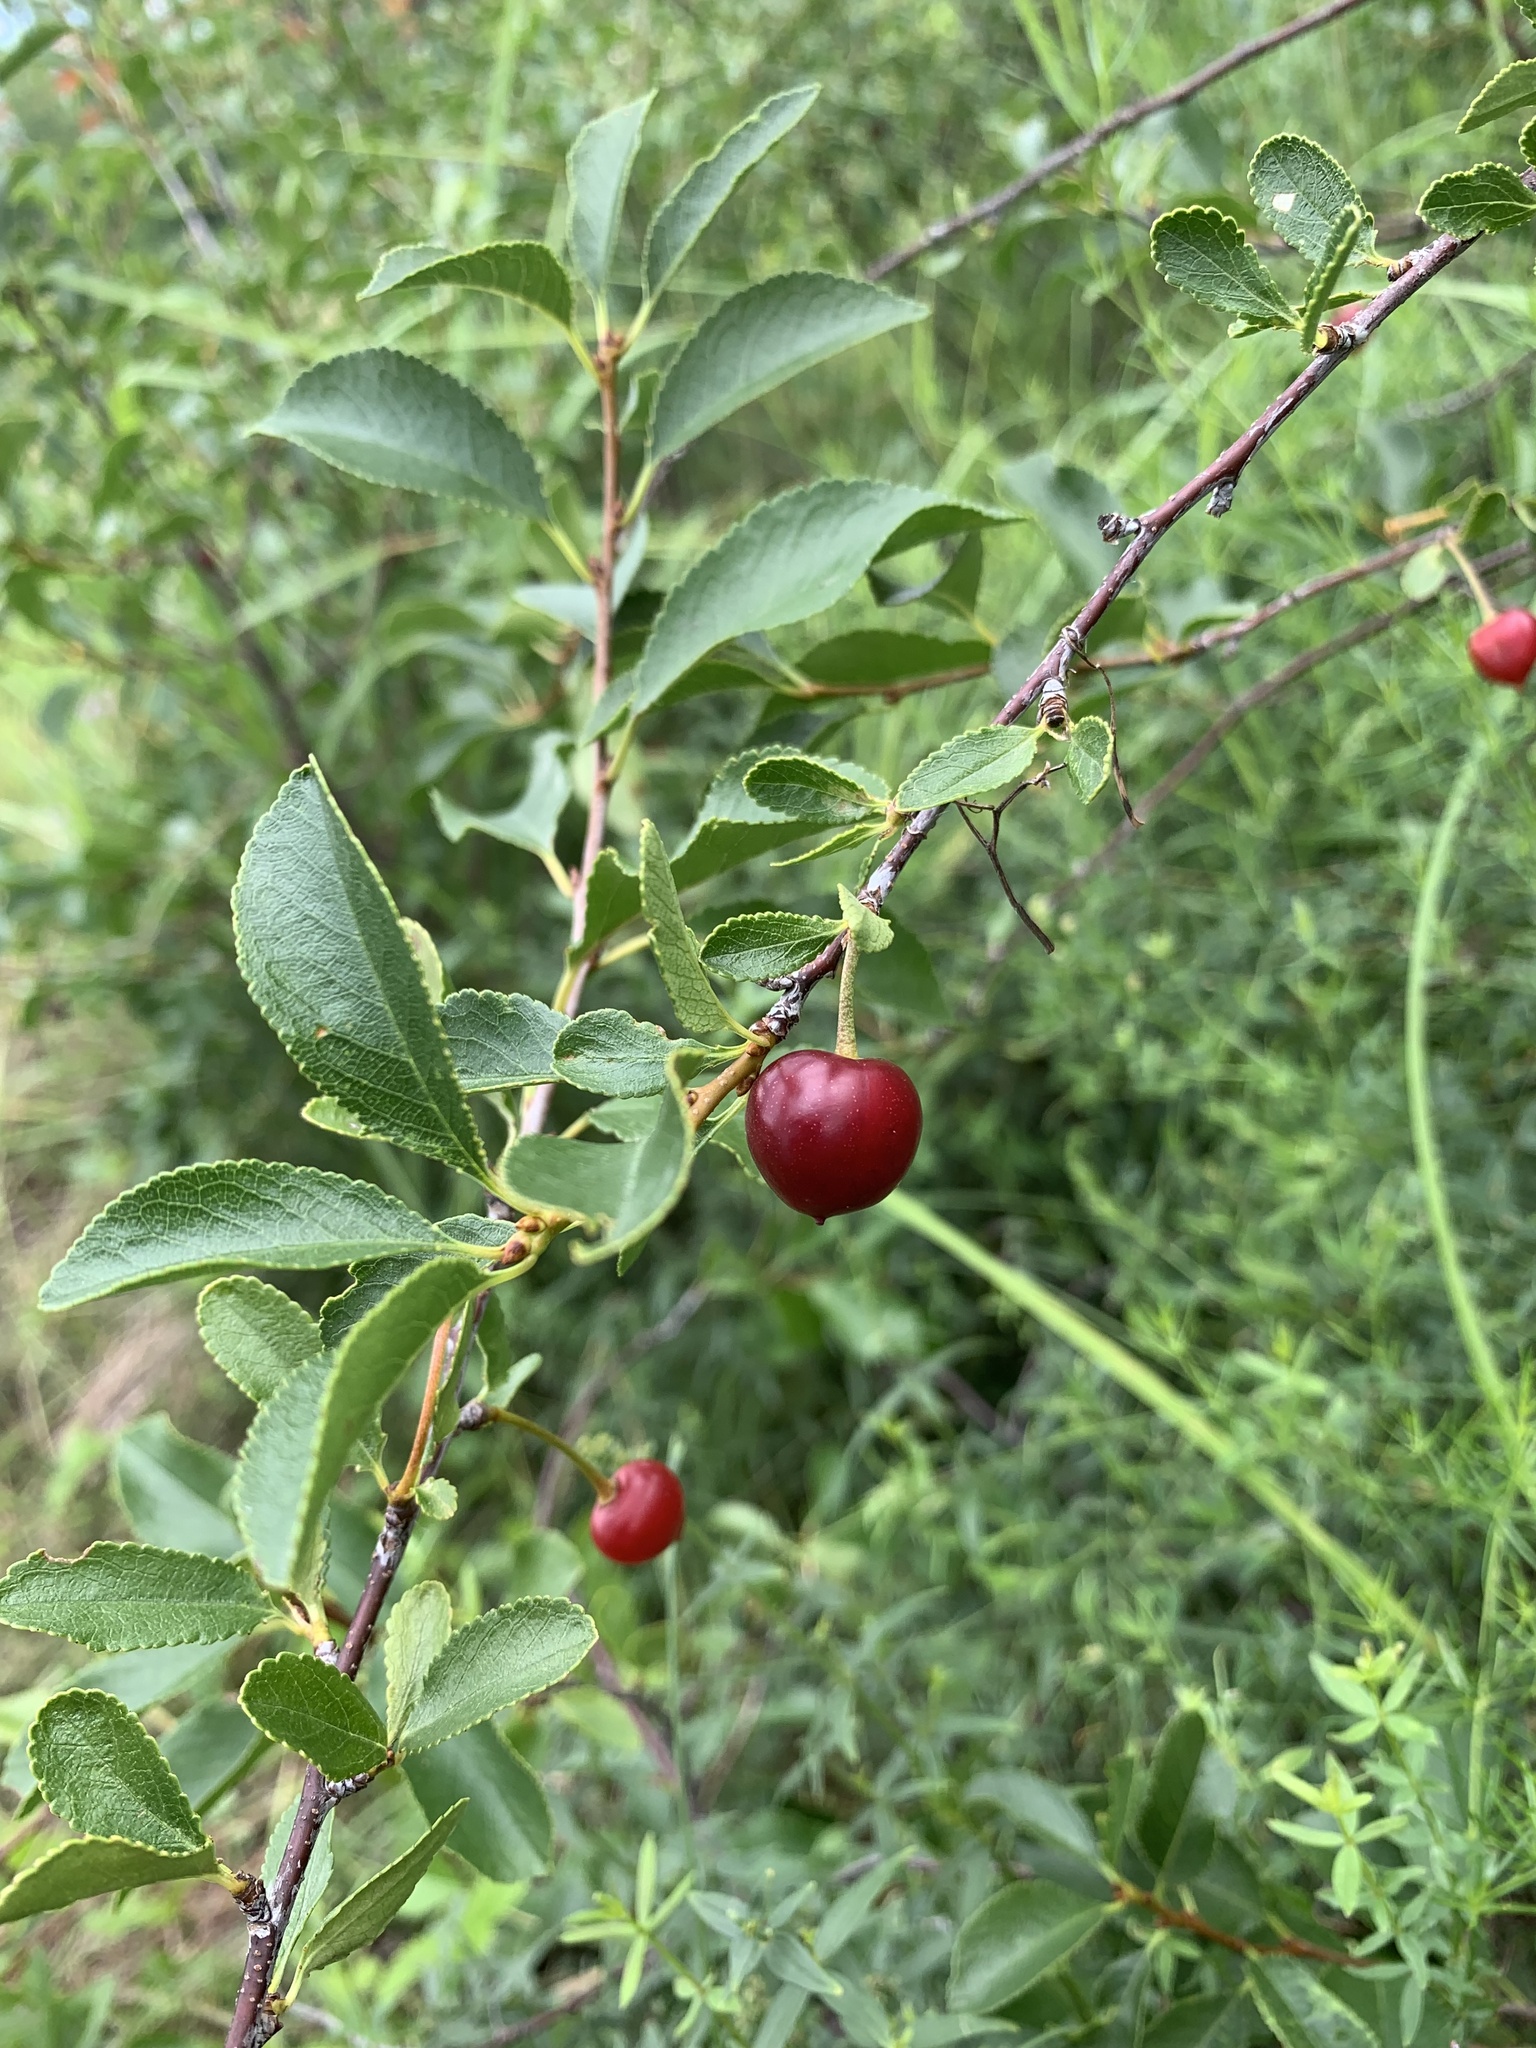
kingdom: Plantae
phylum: Tracheophyta
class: Magnoliopsida
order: Rosales
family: Rosaceae
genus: Prunus
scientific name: Prunus fruticosa
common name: European dwarf cherry
